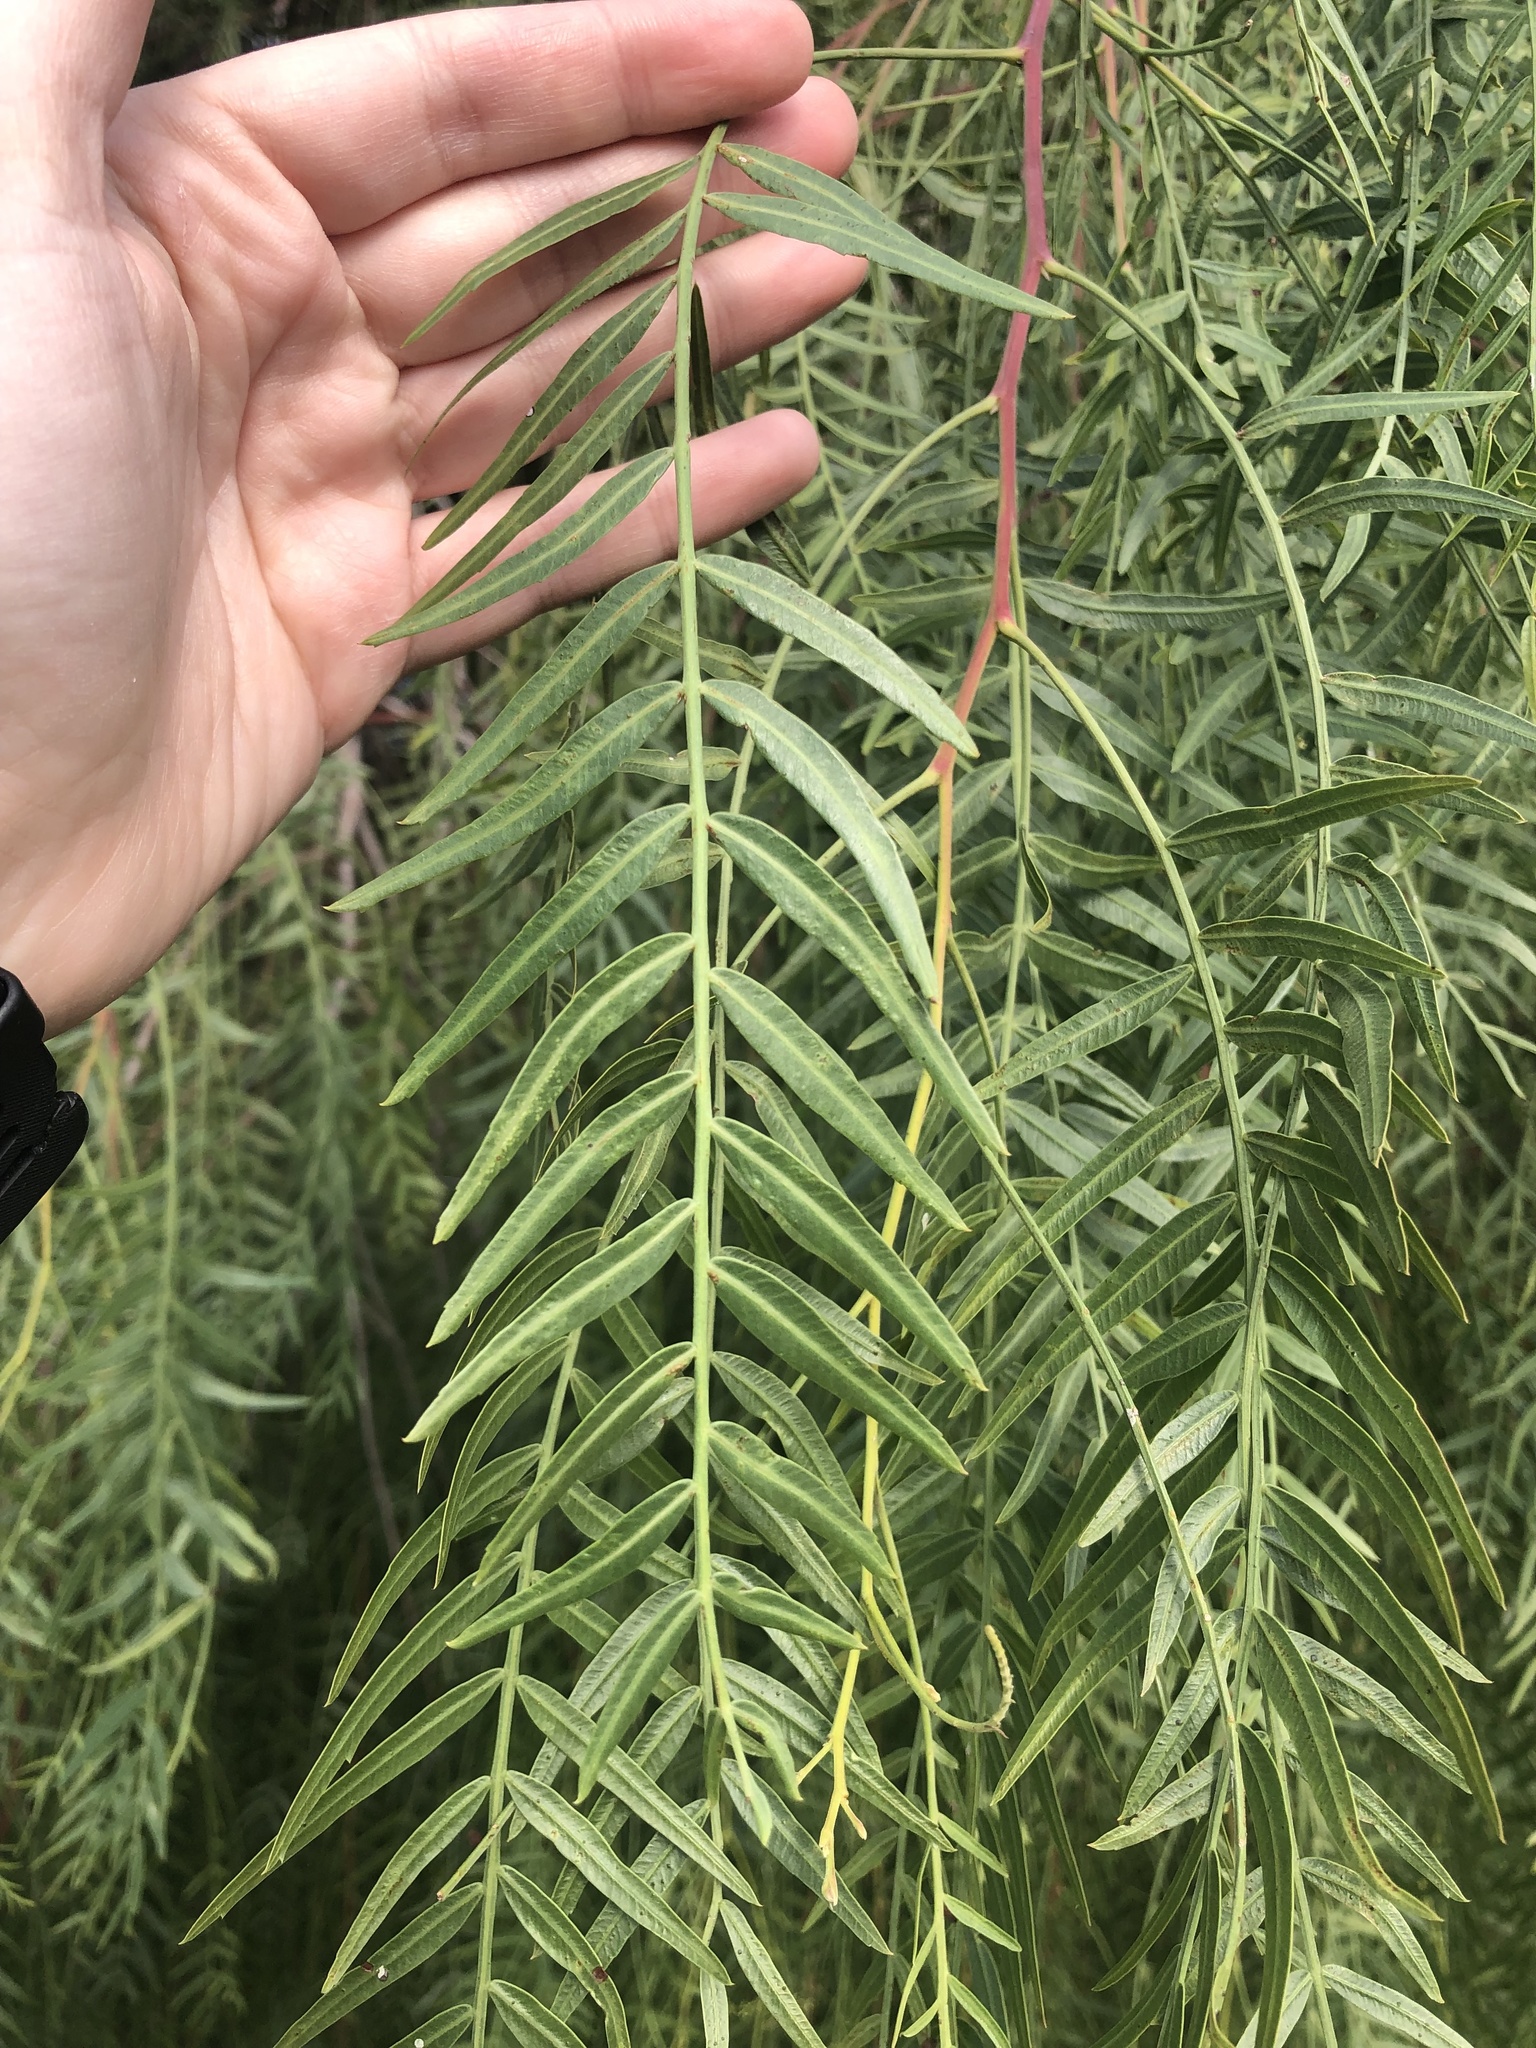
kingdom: Plantae
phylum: Tracheophyta
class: Magnoliopsida
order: Sapindales
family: Anacardiaceae
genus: Schinus
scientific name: Schinus molle
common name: Peruvian peppertree
